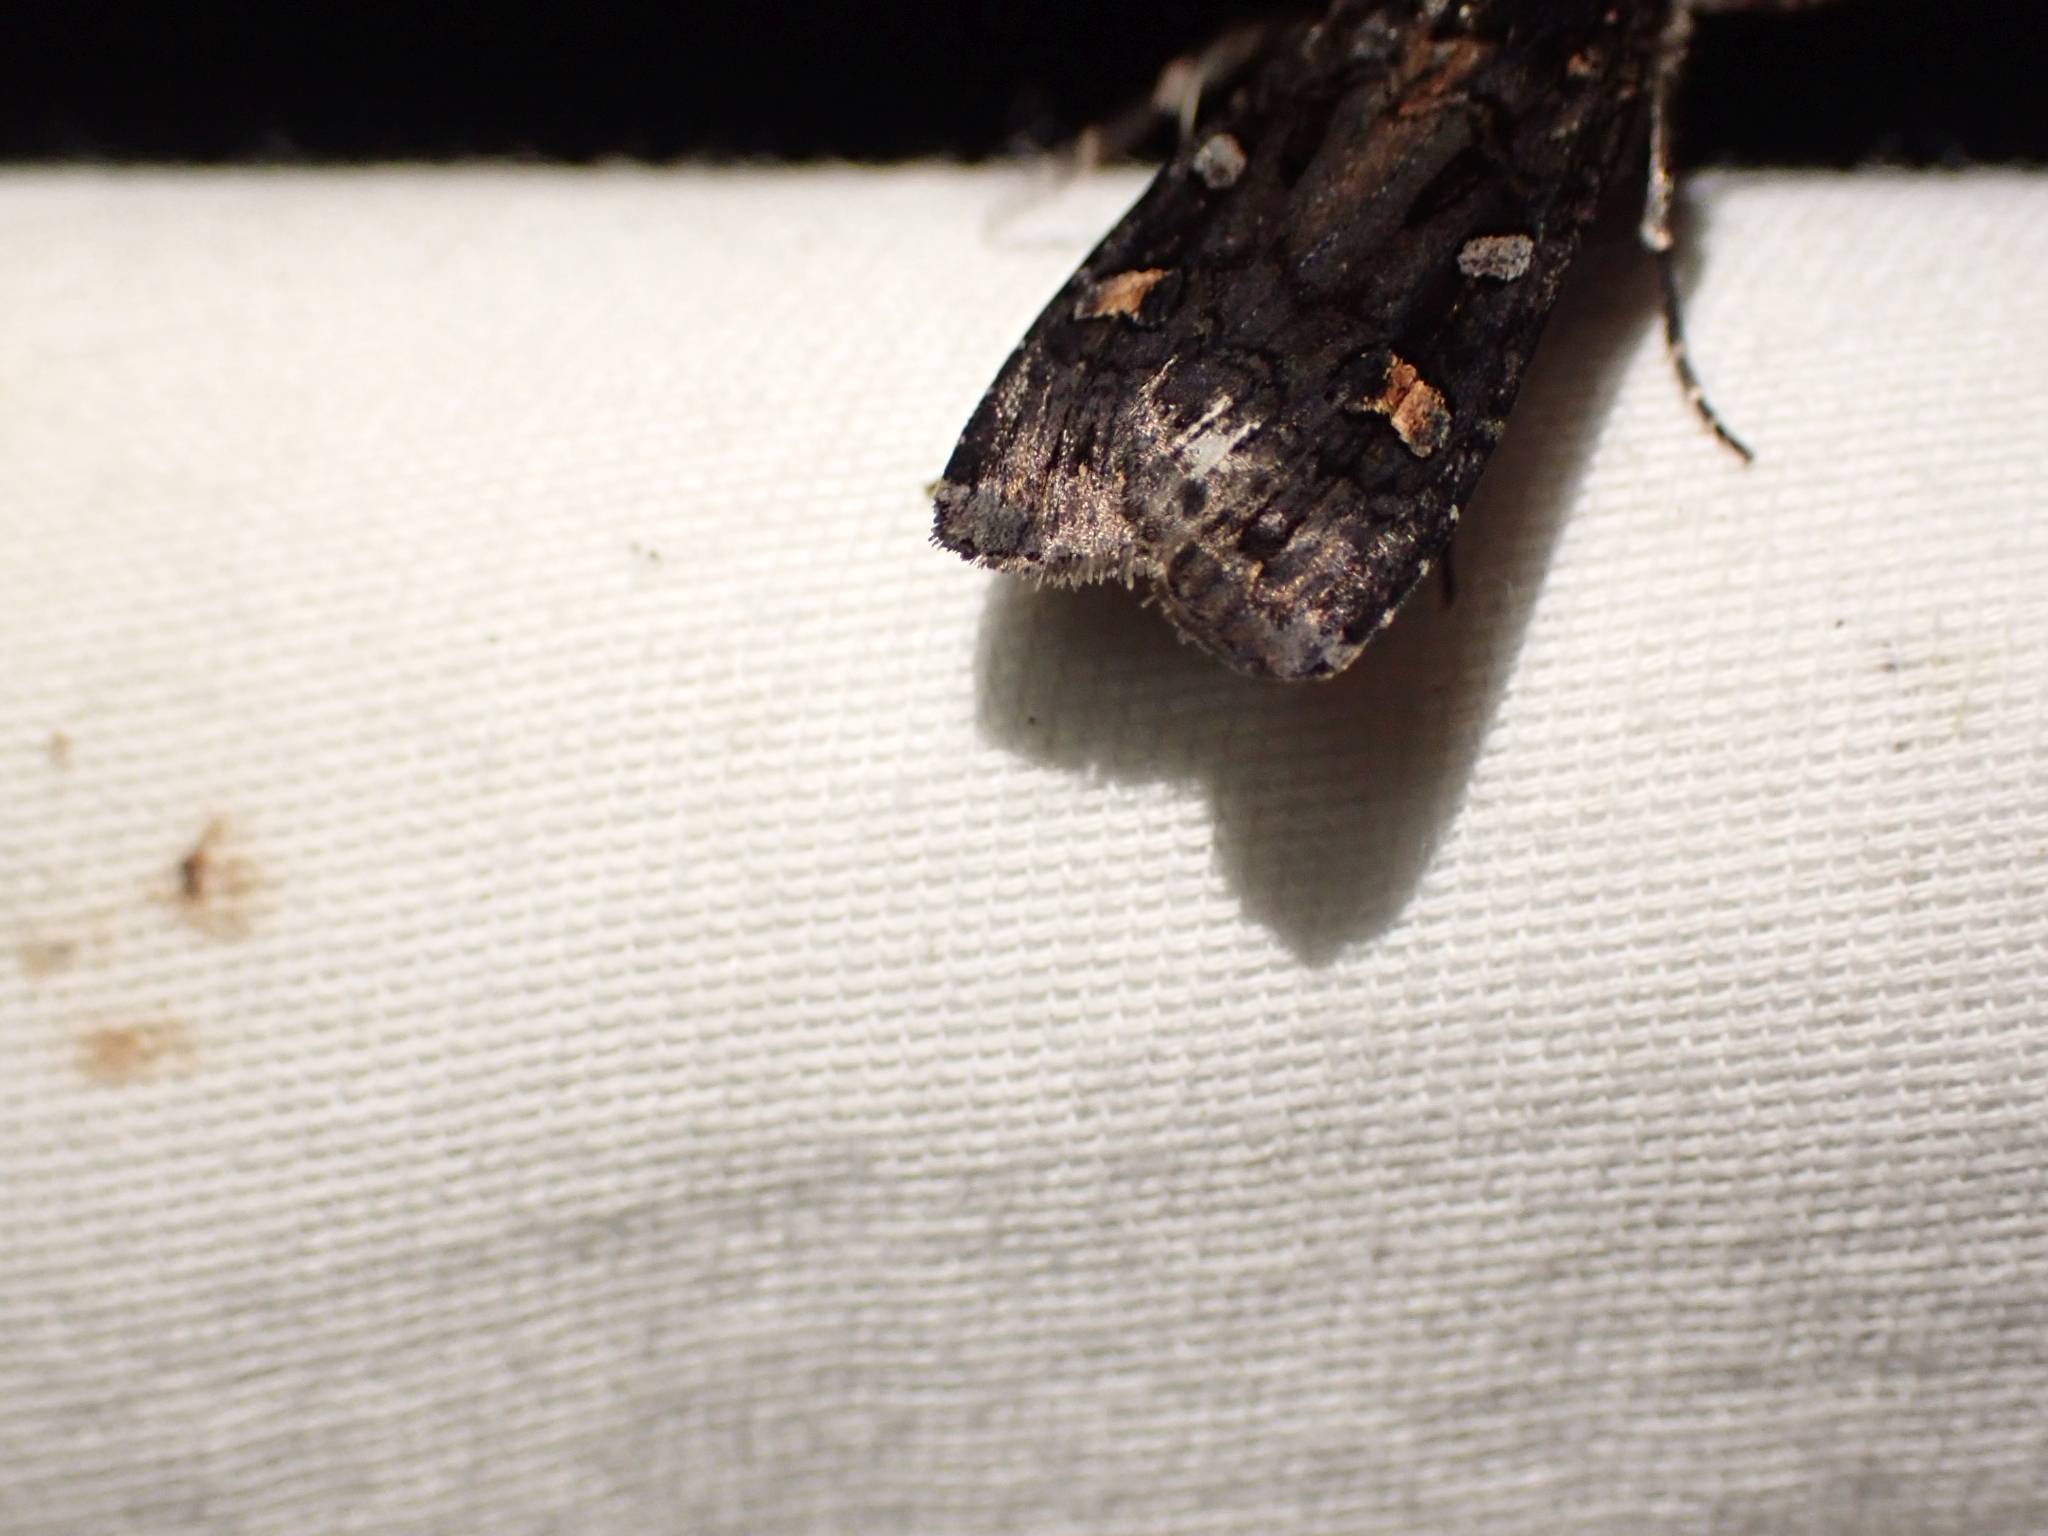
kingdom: Animalia
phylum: Arthropoda
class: Insecta
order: Lepidoptera
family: Noctuidae
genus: Actebia
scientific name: Actebia fennica
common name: Eversmann's rustic
